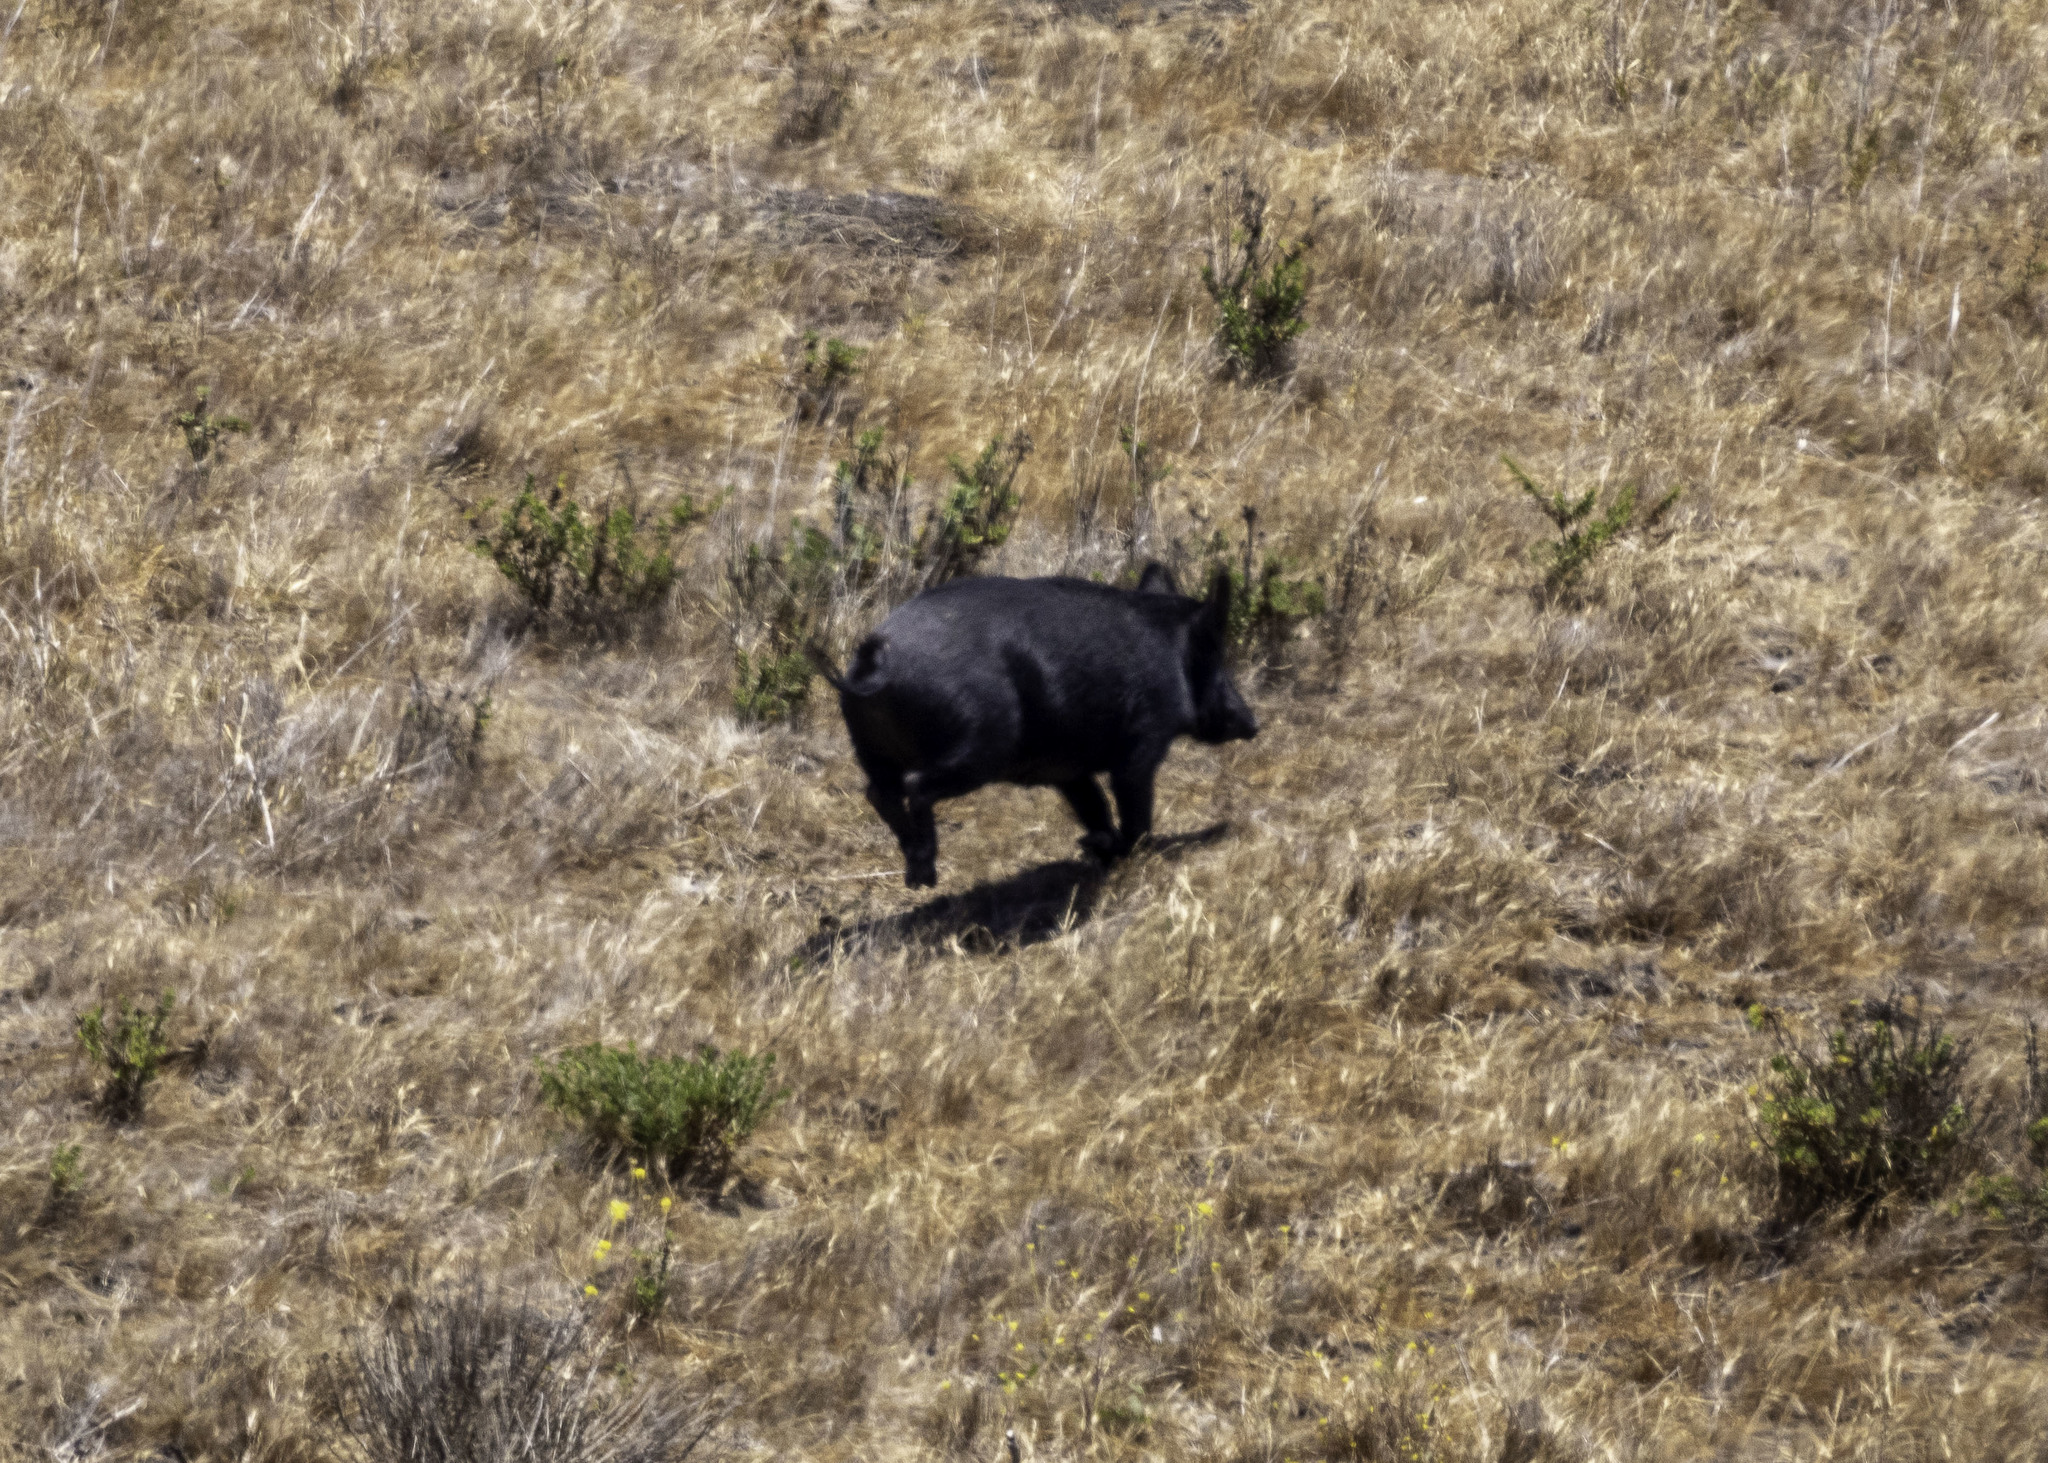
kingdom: Animalia
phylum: Chordata
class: Mammalia
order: Artiodactyla
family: Suidae
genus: Sus
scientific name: Sus scrofa
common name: Wild boar
